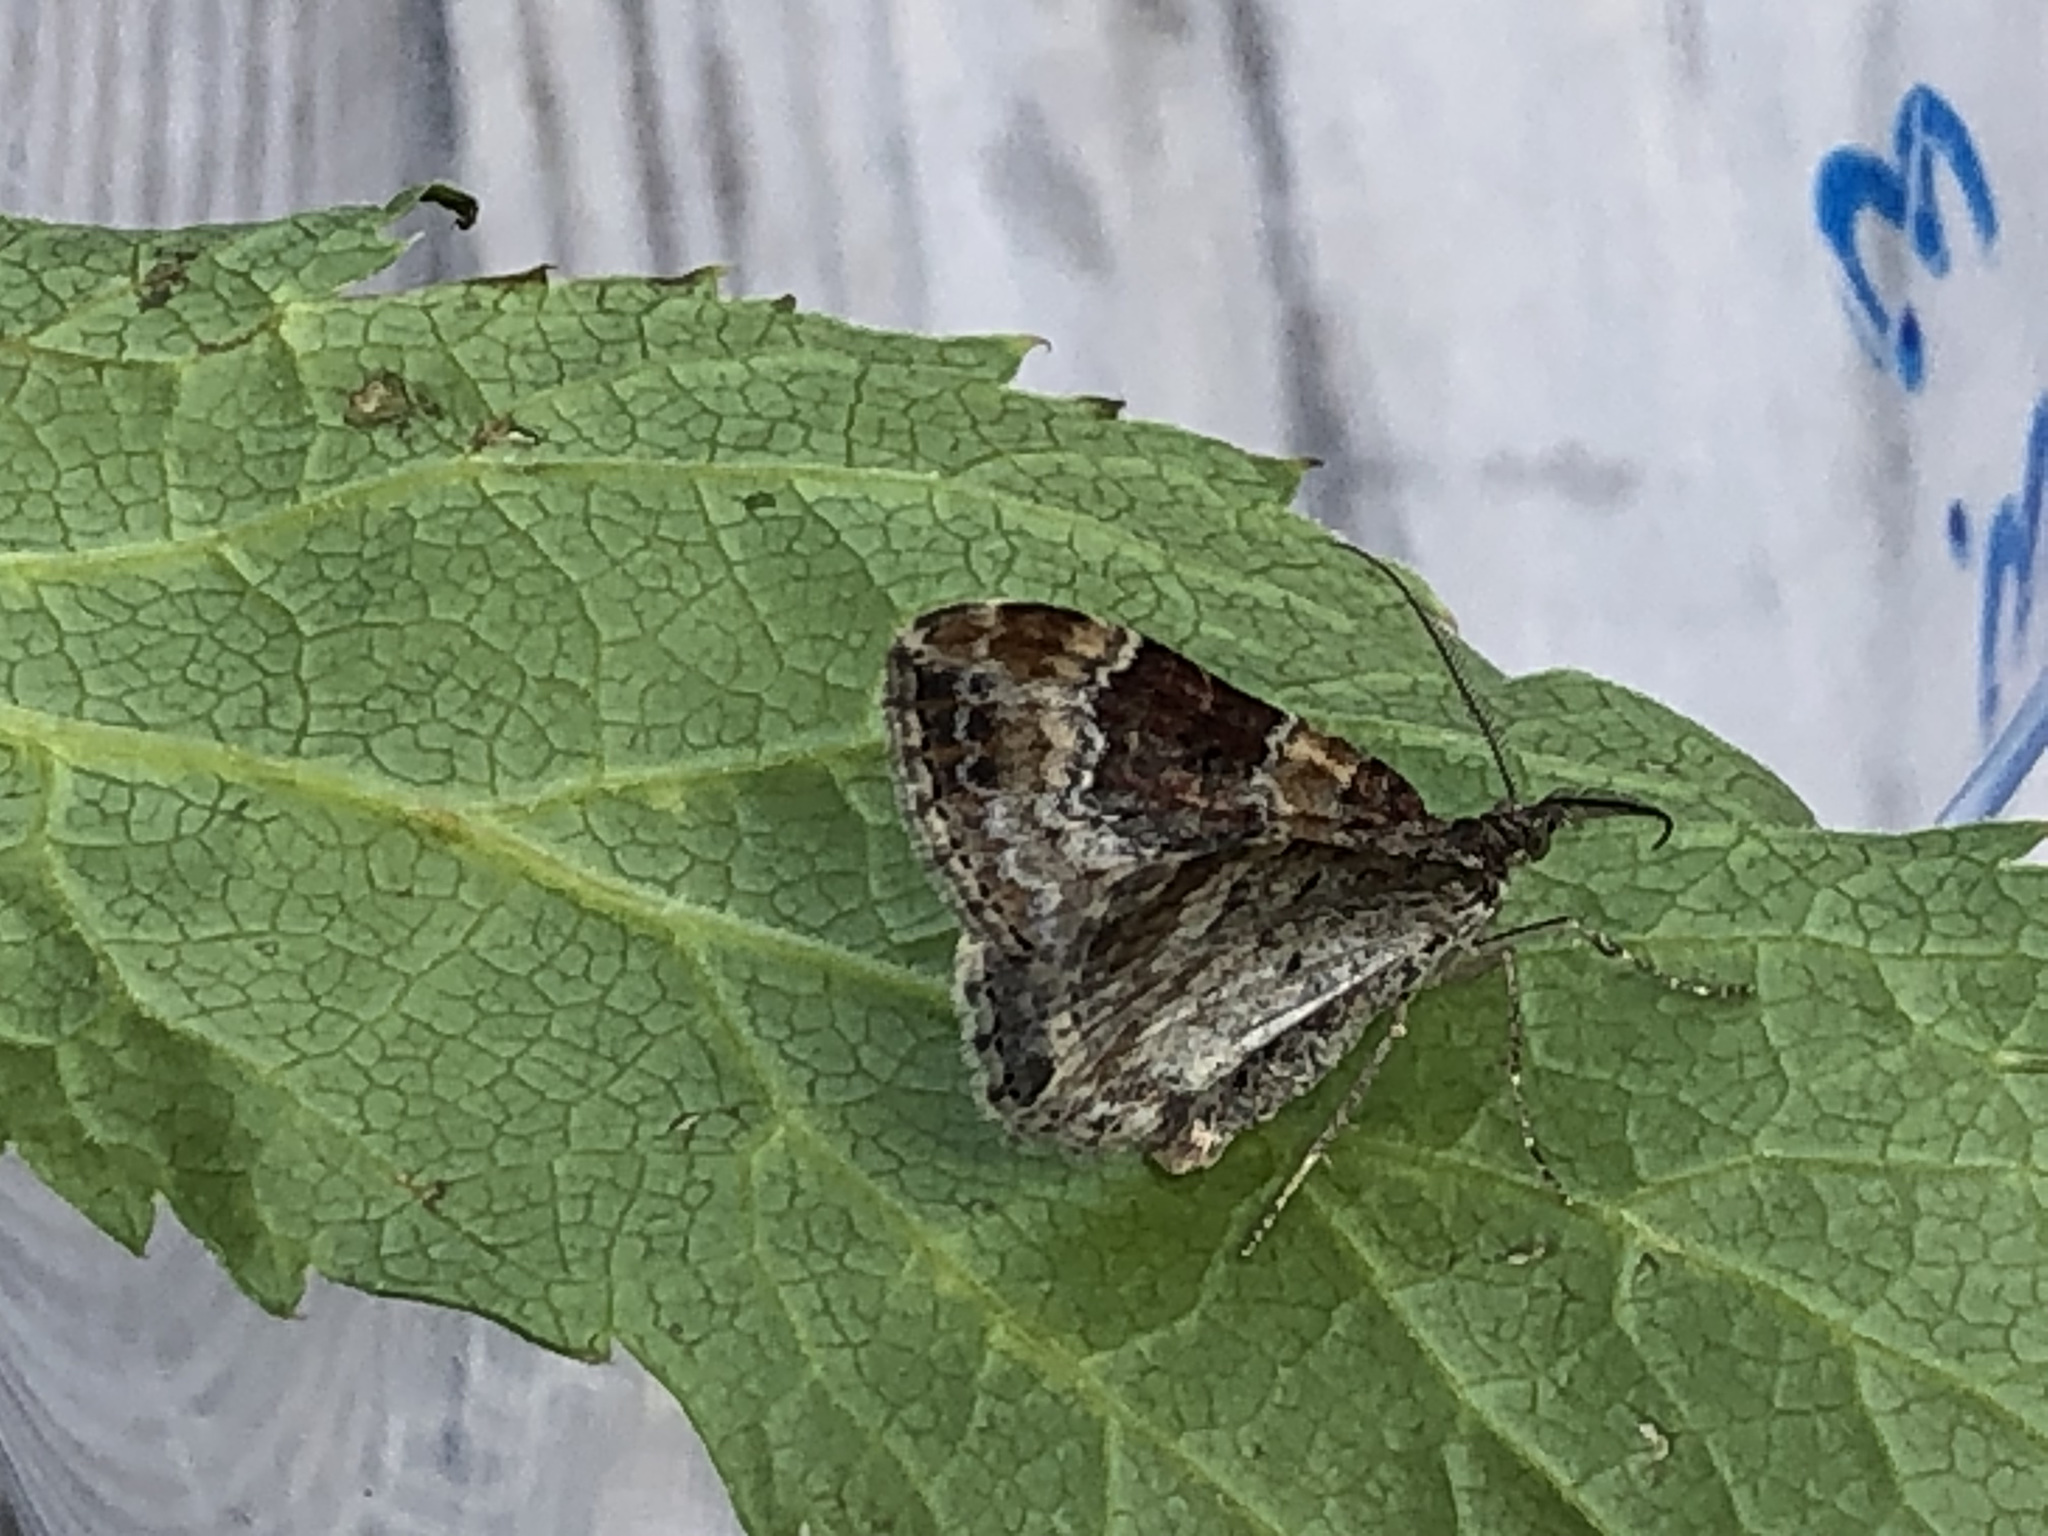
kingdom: Animalia
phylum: Arthropoda
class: Insecta
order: Lepidoptera
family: Geometridae
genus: Xanthorhoe
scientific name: Xanthorhoe spadicearia
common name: Red twin-spot carpet
